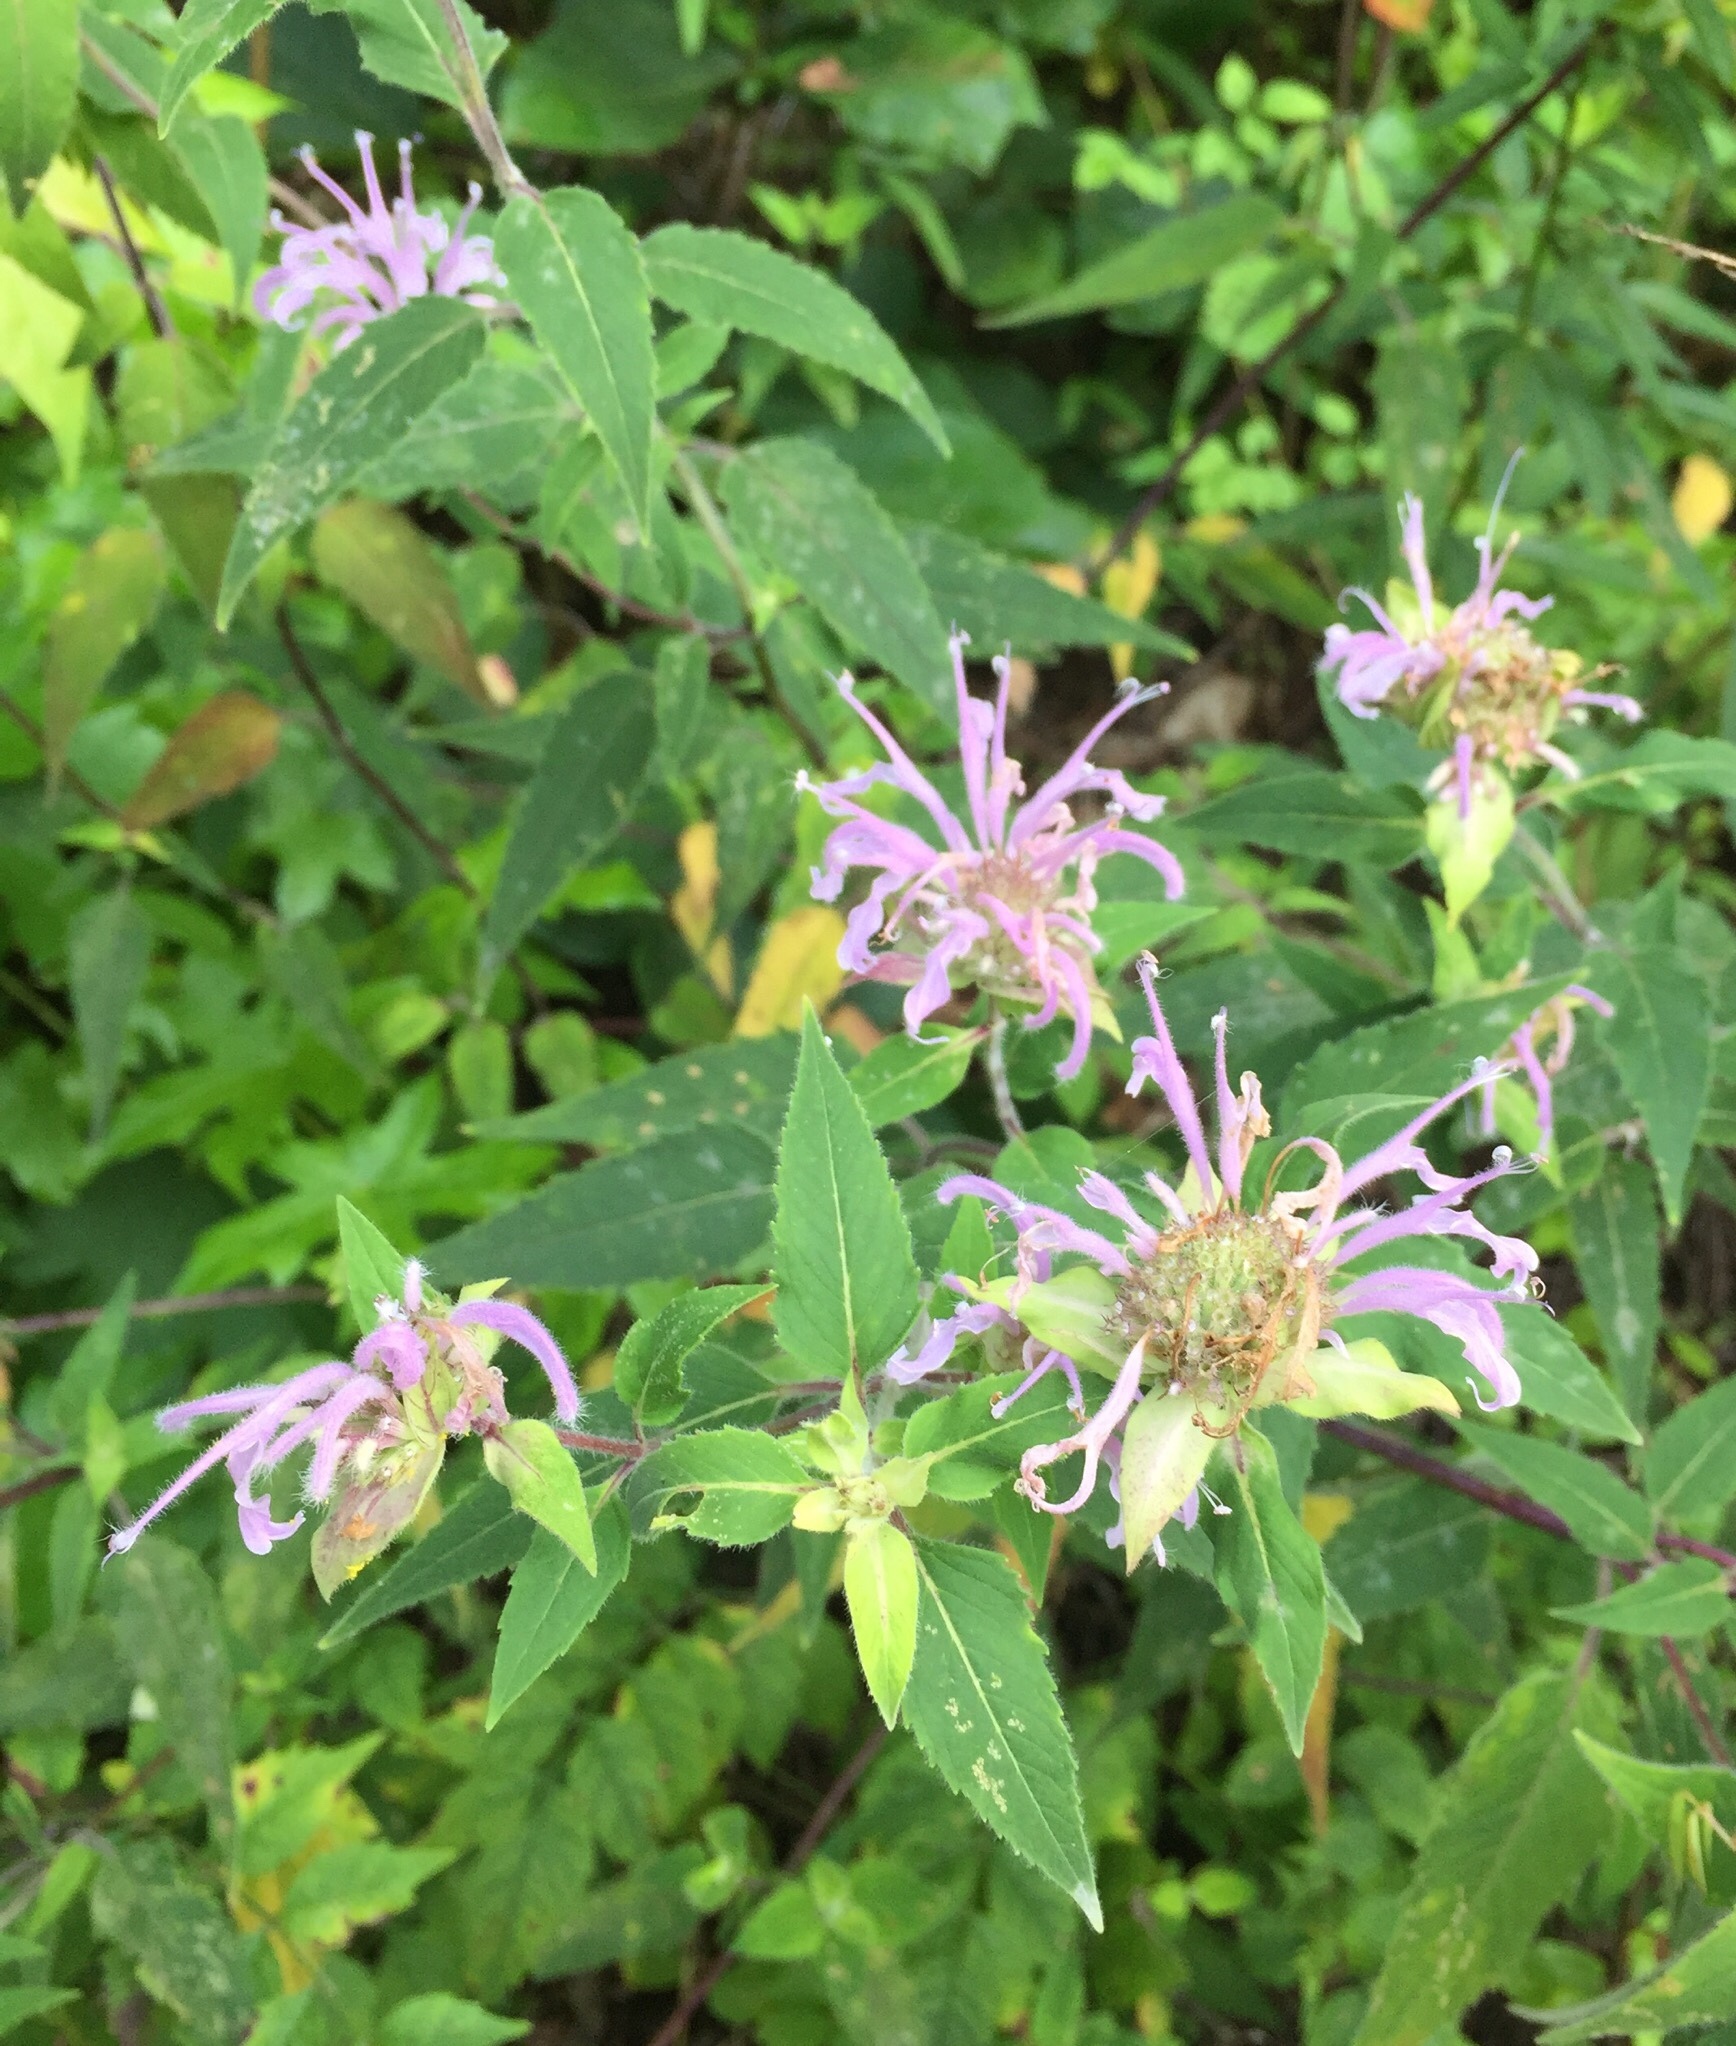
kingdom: Plantae
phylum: Tracheophyta
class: Magnoliopsida
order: Lamiales
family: Lamiaceae
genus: Monarda
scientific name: Monarda fistulosa
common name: Purple beebalm
